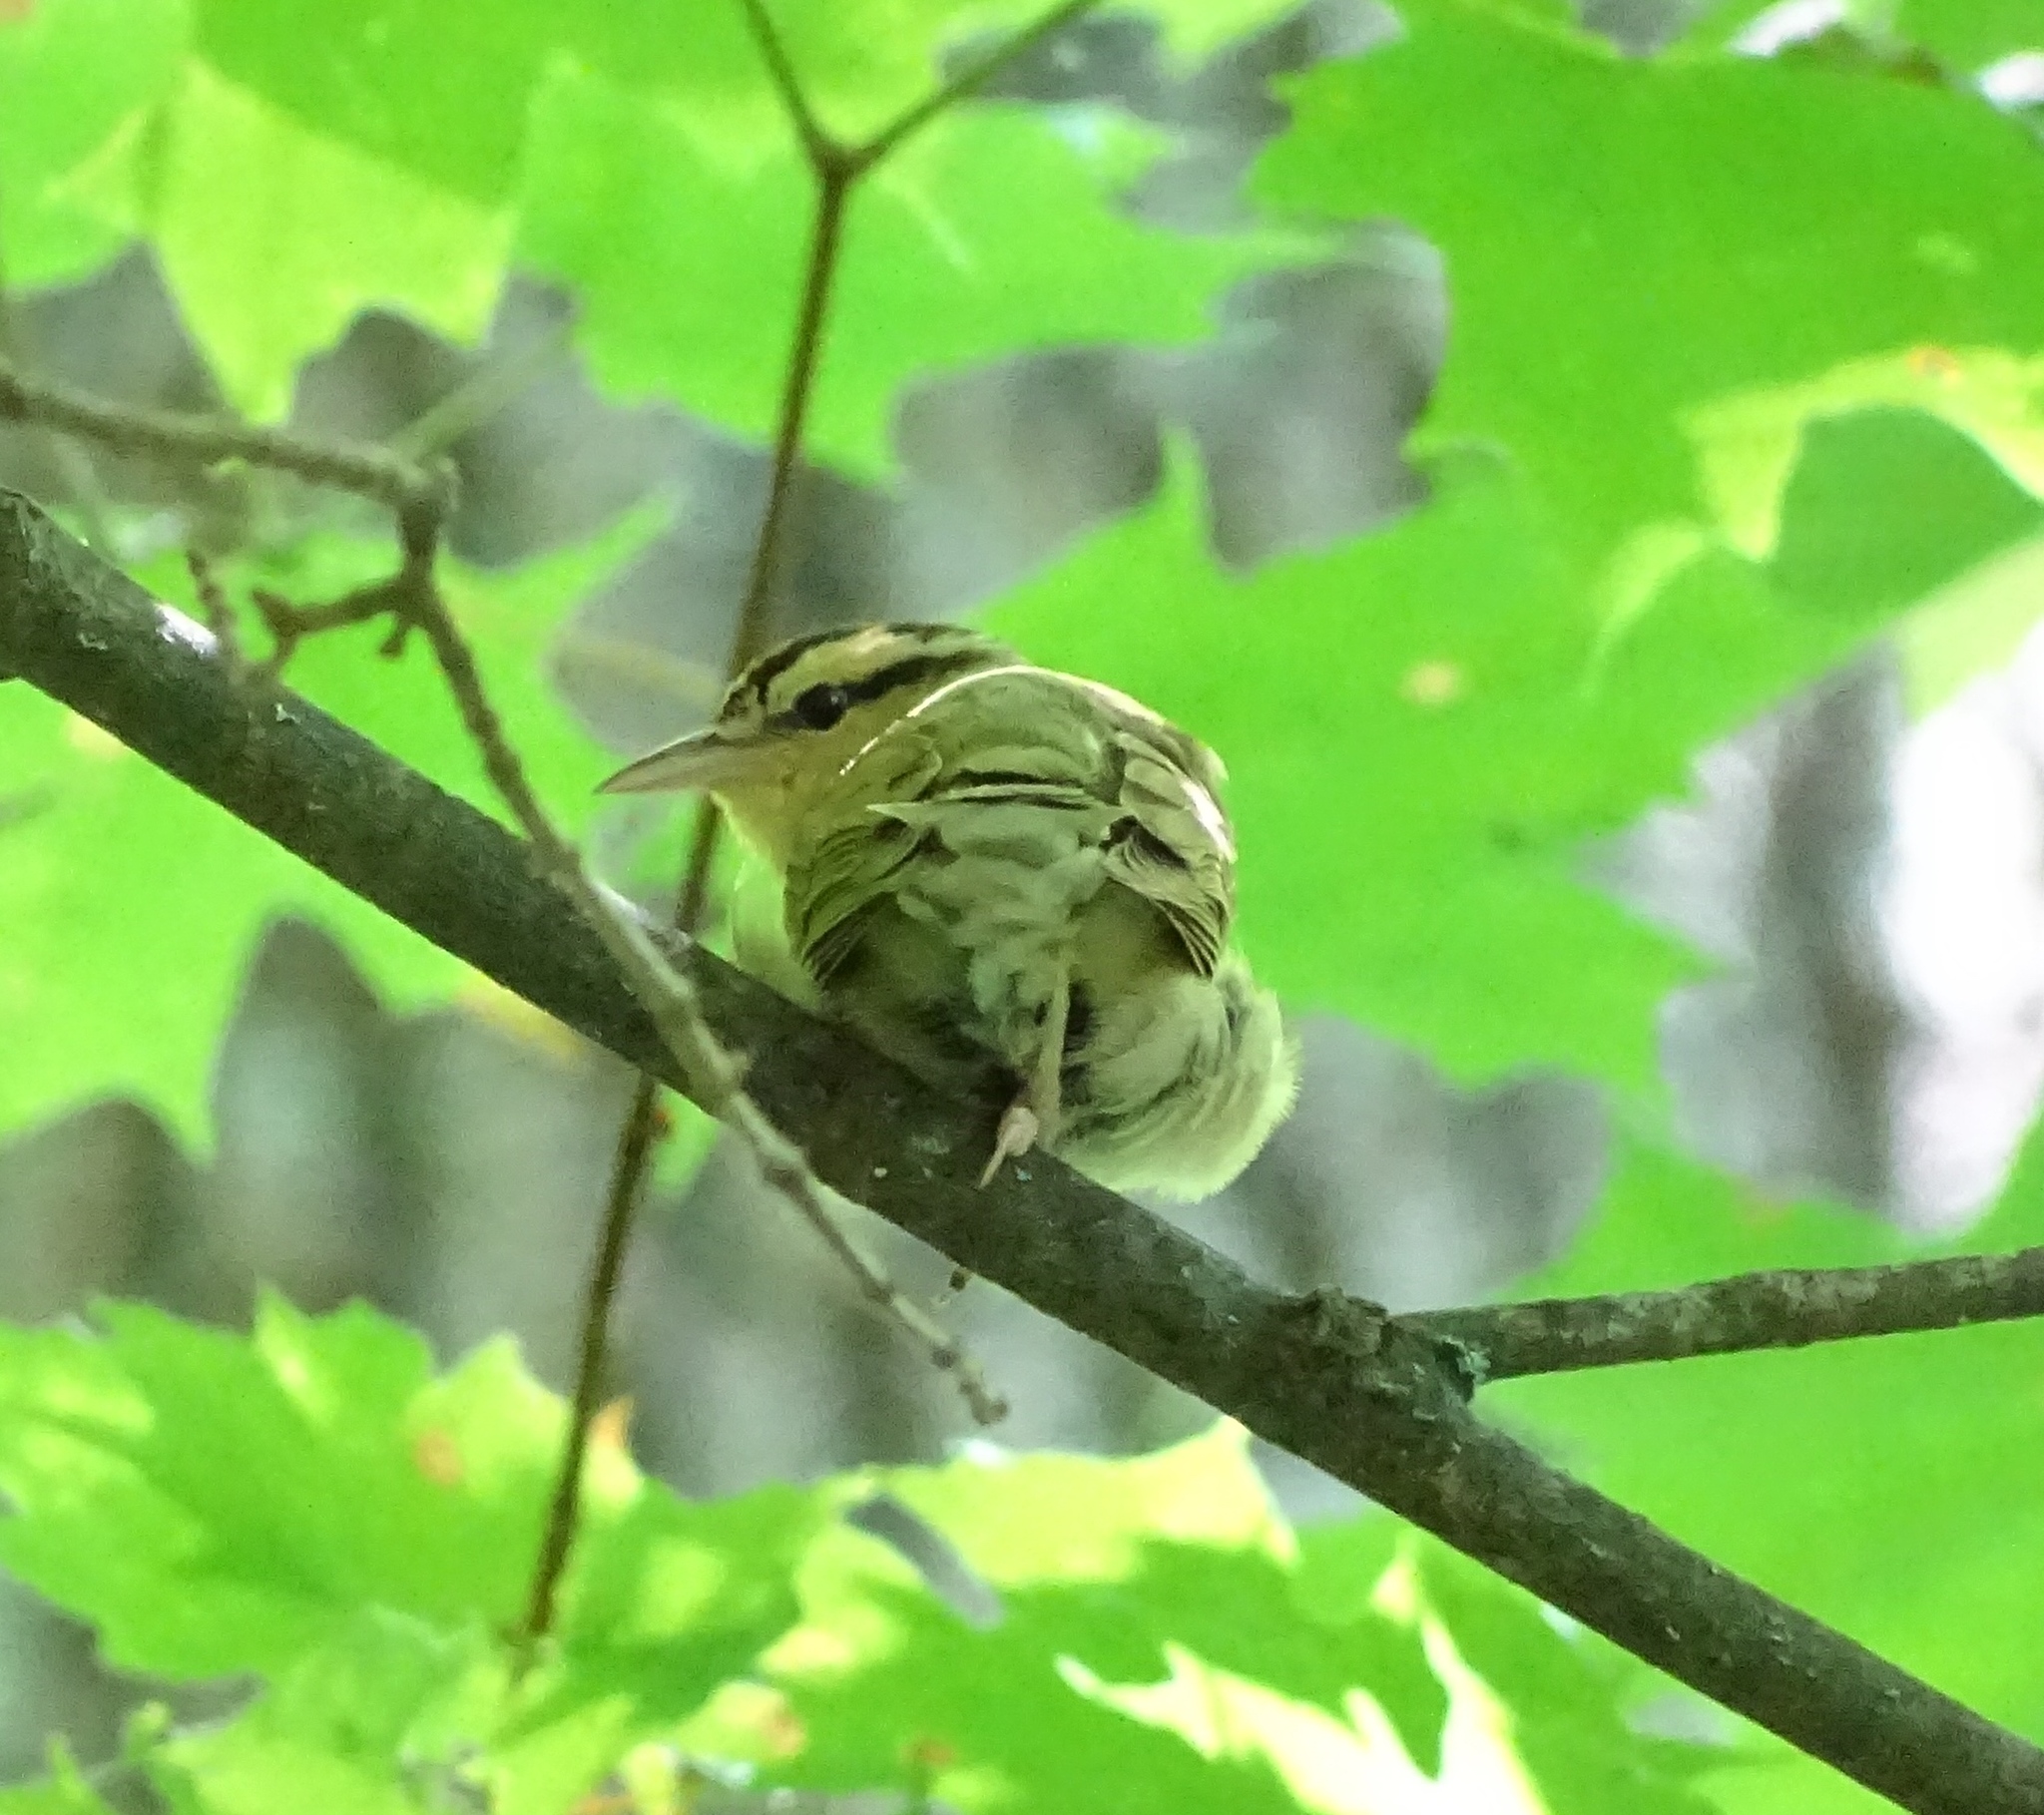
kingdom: Animalia
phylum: Chordata
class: Aves
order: Passeriformes
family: Parulidae
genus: Helmitheros
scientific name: Helmitheros vermivorum
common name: Worm-eating warbler
